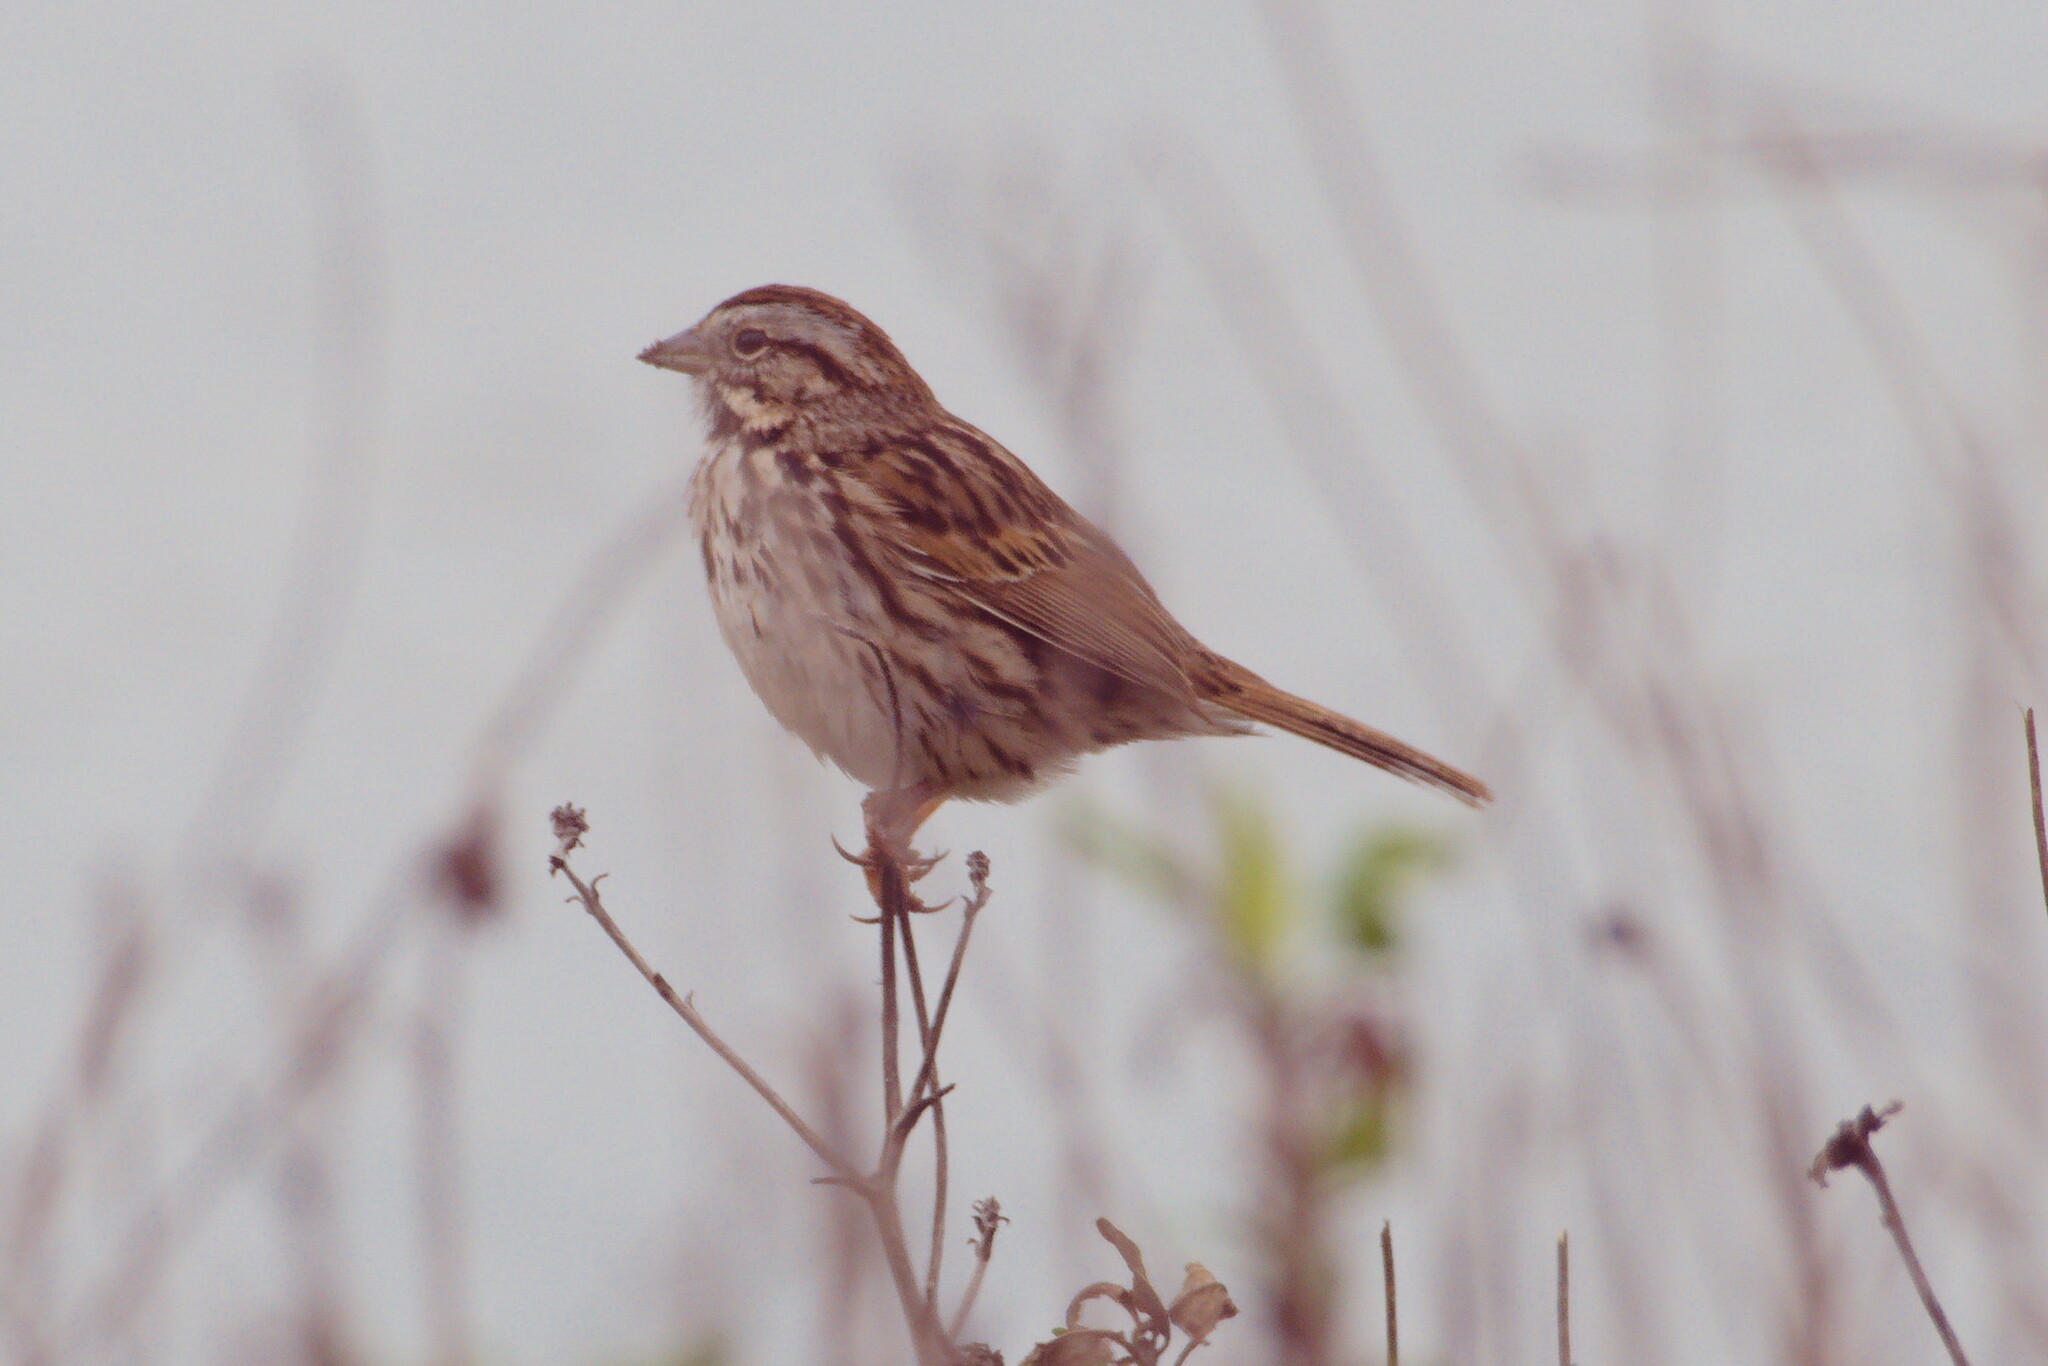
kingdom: Animalia
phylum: Chordata
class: Aves
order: Passeriformes
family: Passerellidae
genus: Melospiza
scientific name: Melospiza melodia
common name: Song sparrow
